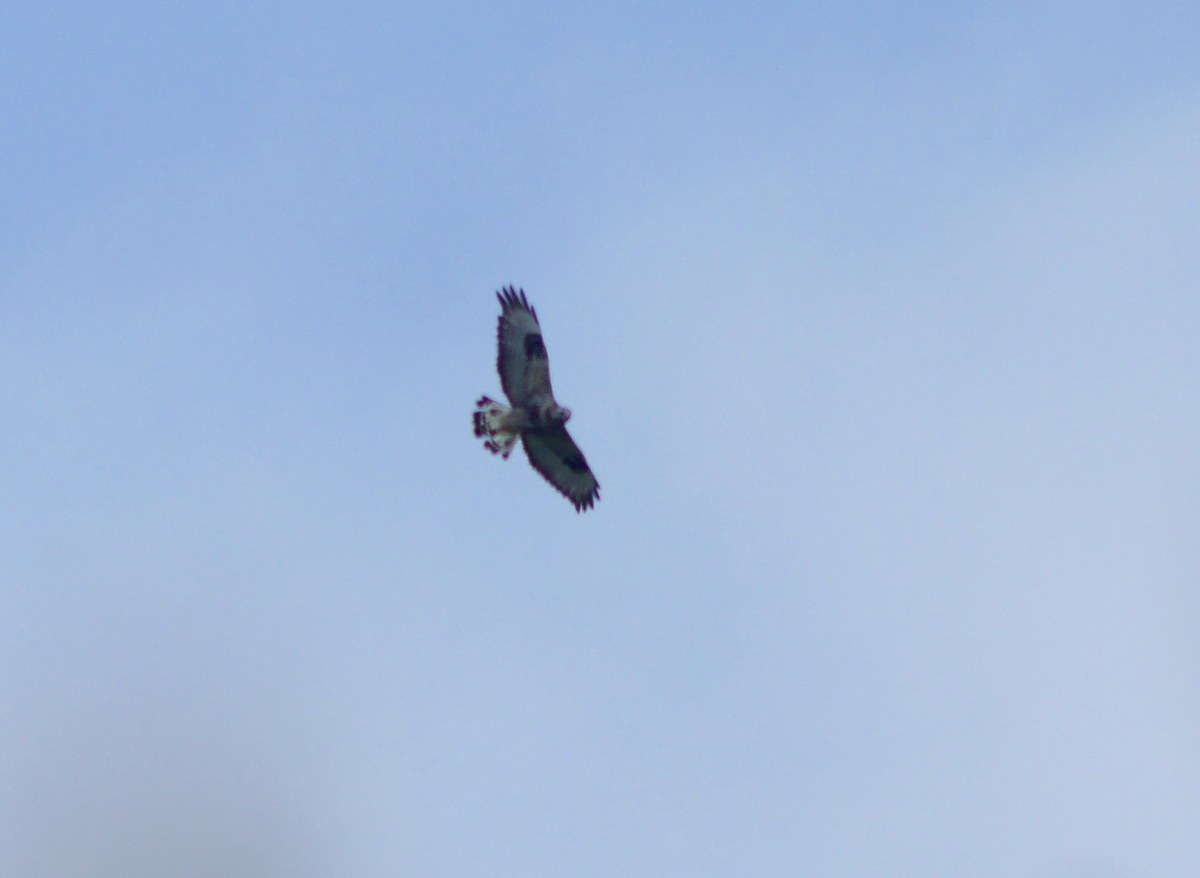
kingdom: Animalia
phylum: Chordata
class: Aves
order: Accipitriformes
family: Accipitridae
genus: Buteo
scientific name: Buteo lagopus
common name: Rough-legged buzzard
